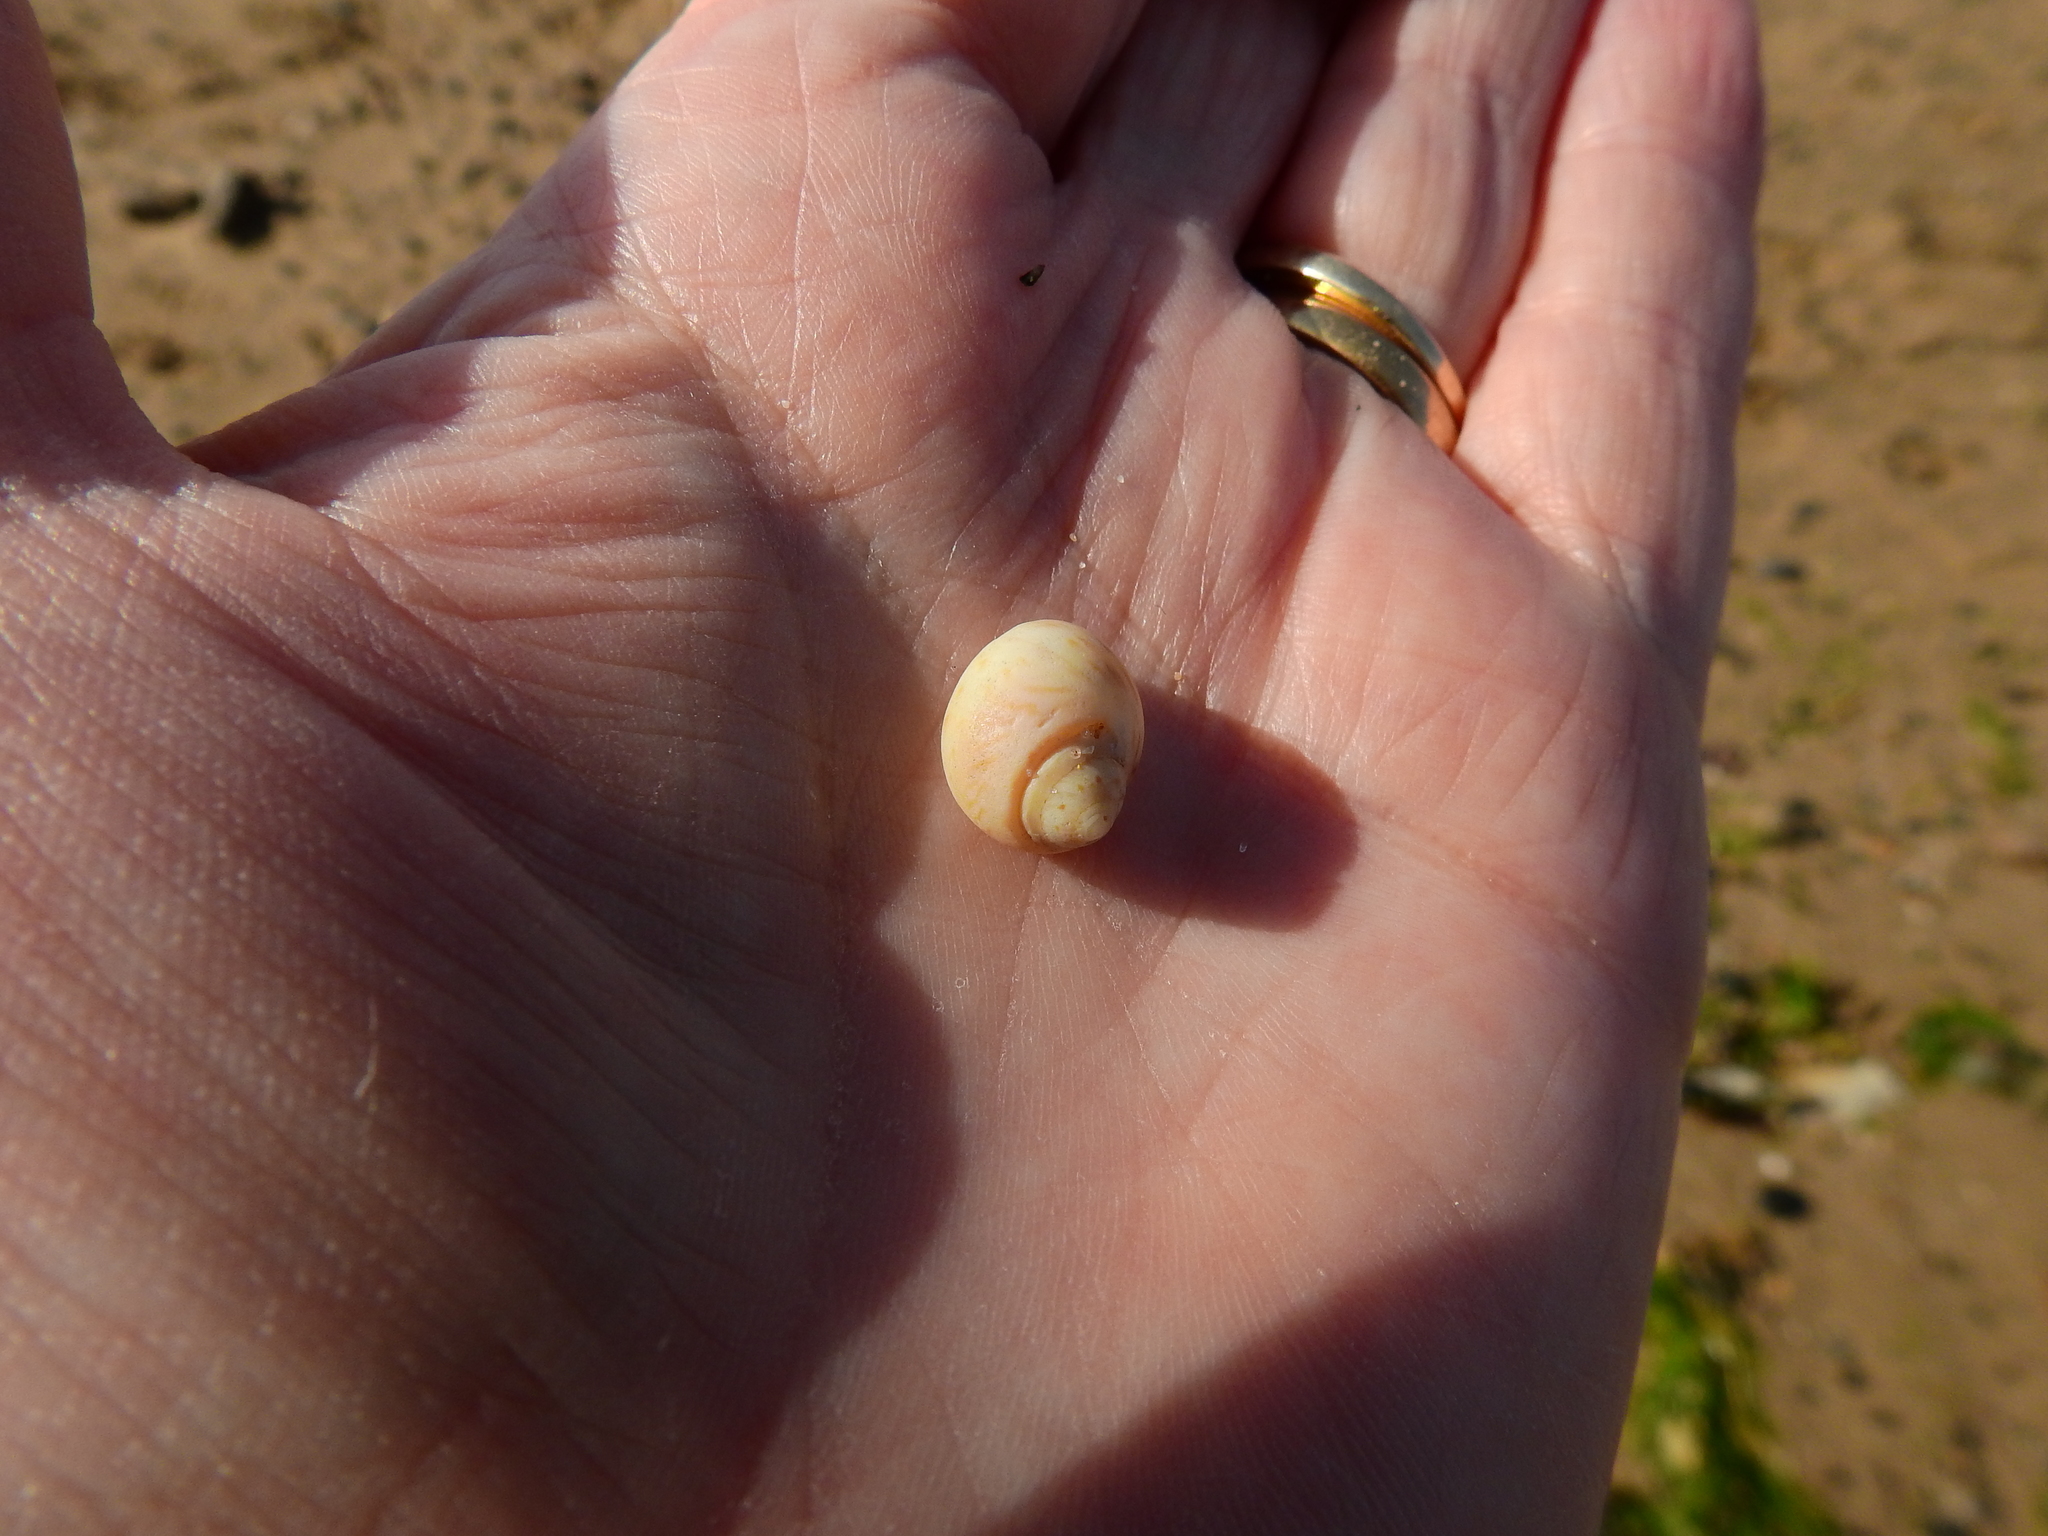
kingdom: Animalia
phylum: Mollusca
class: Gastropoda
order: Littorinimorpha
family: Naticidae
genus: Euspira
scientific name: Euspira nitida
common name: Alder's necklace shell
